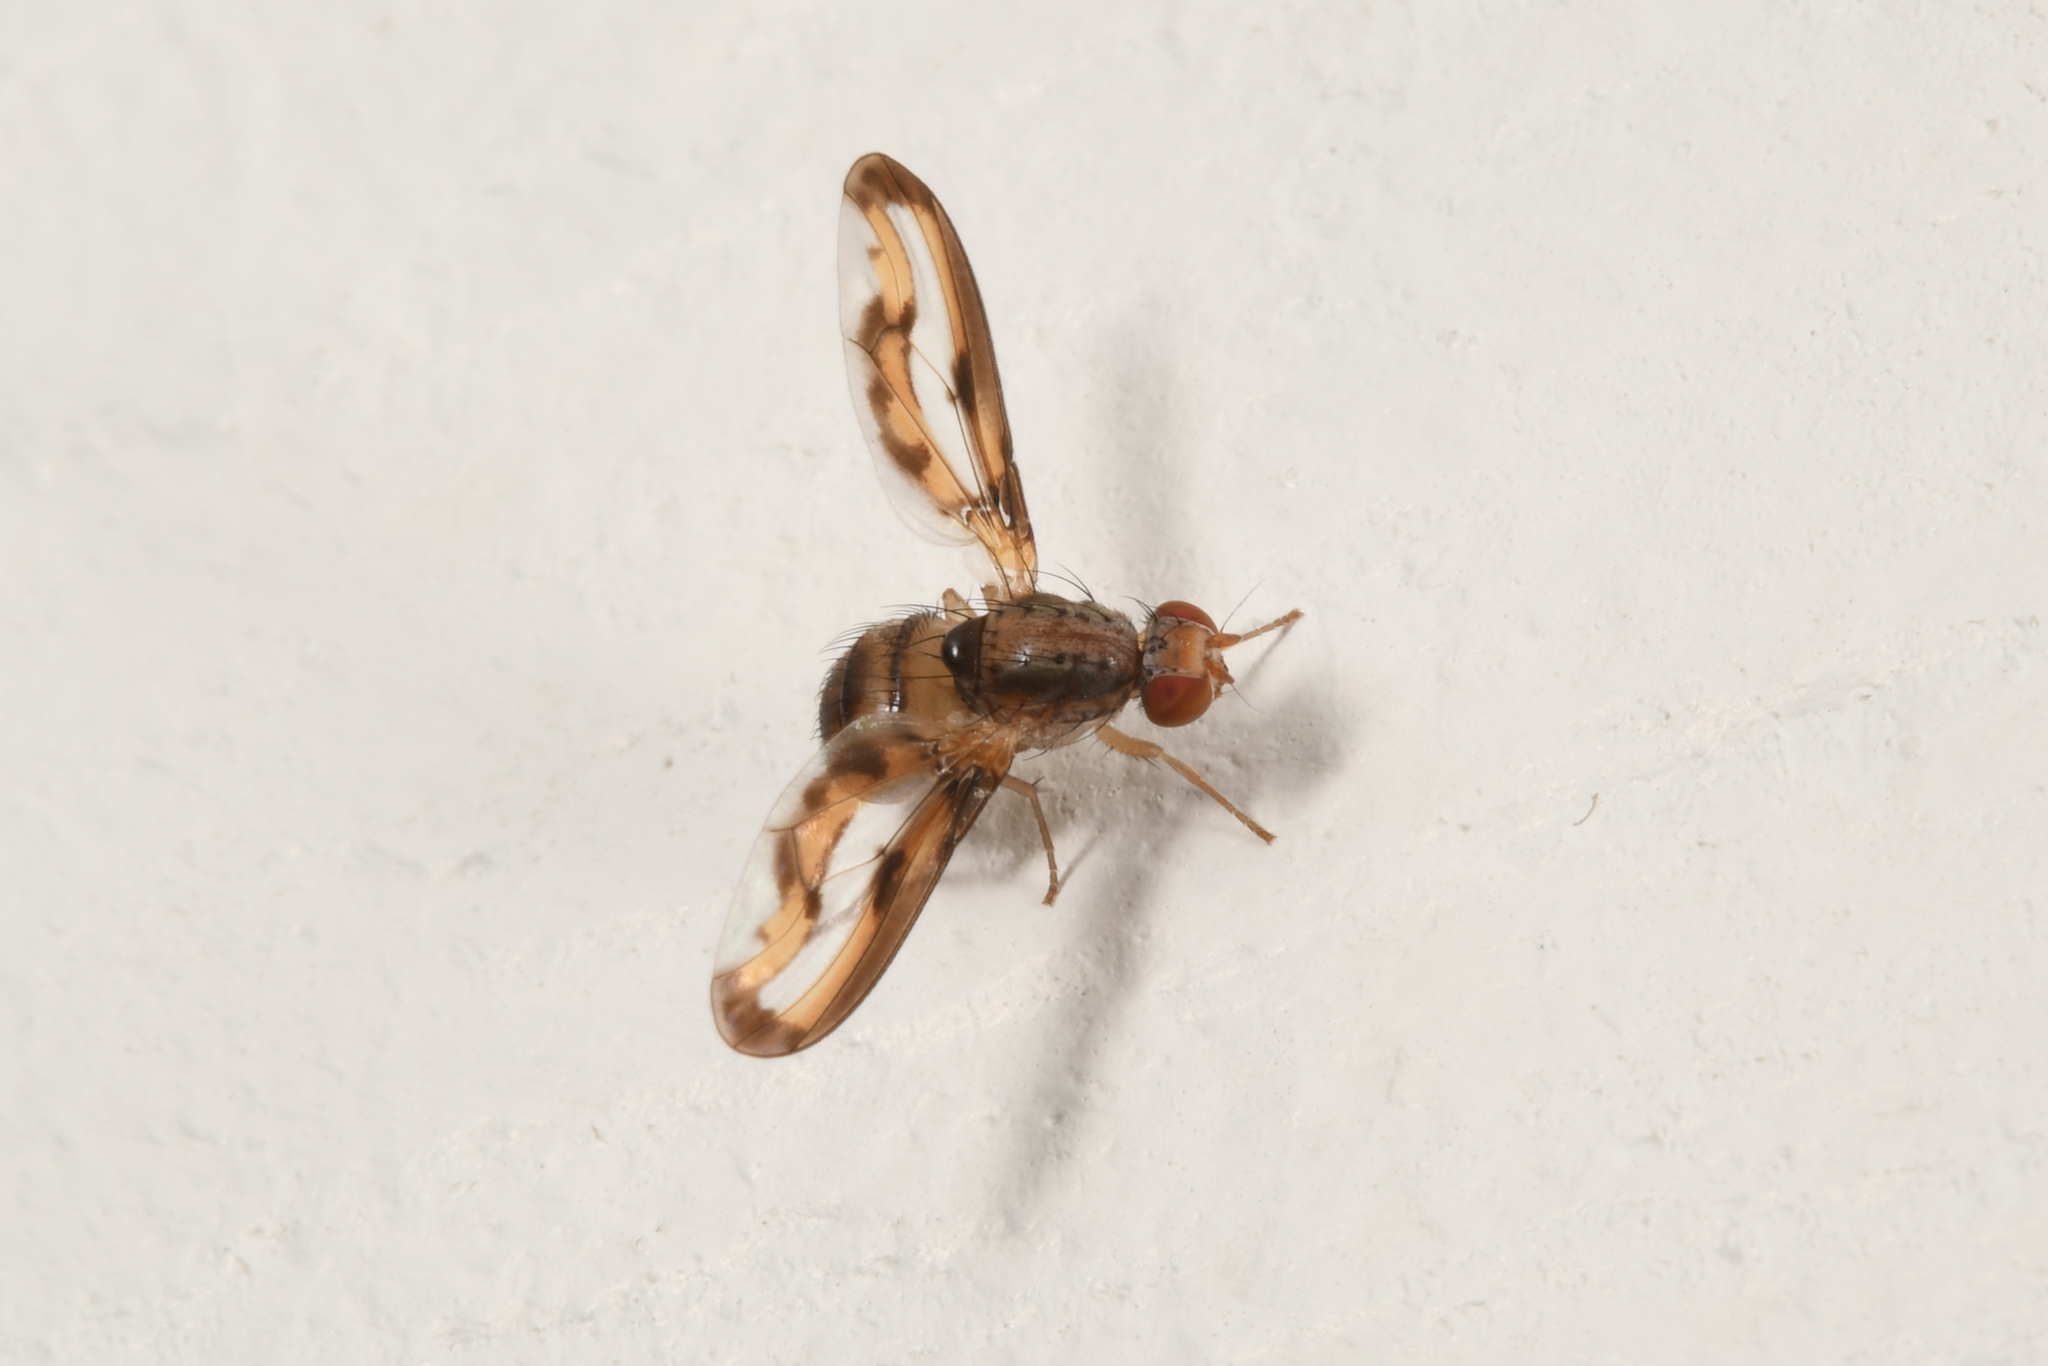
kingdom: Animalia
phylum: Arthropoda
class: Insecta
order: Diptera
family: Pallopteridae
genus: Toxonevra
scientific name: Toxonevra muliebris
